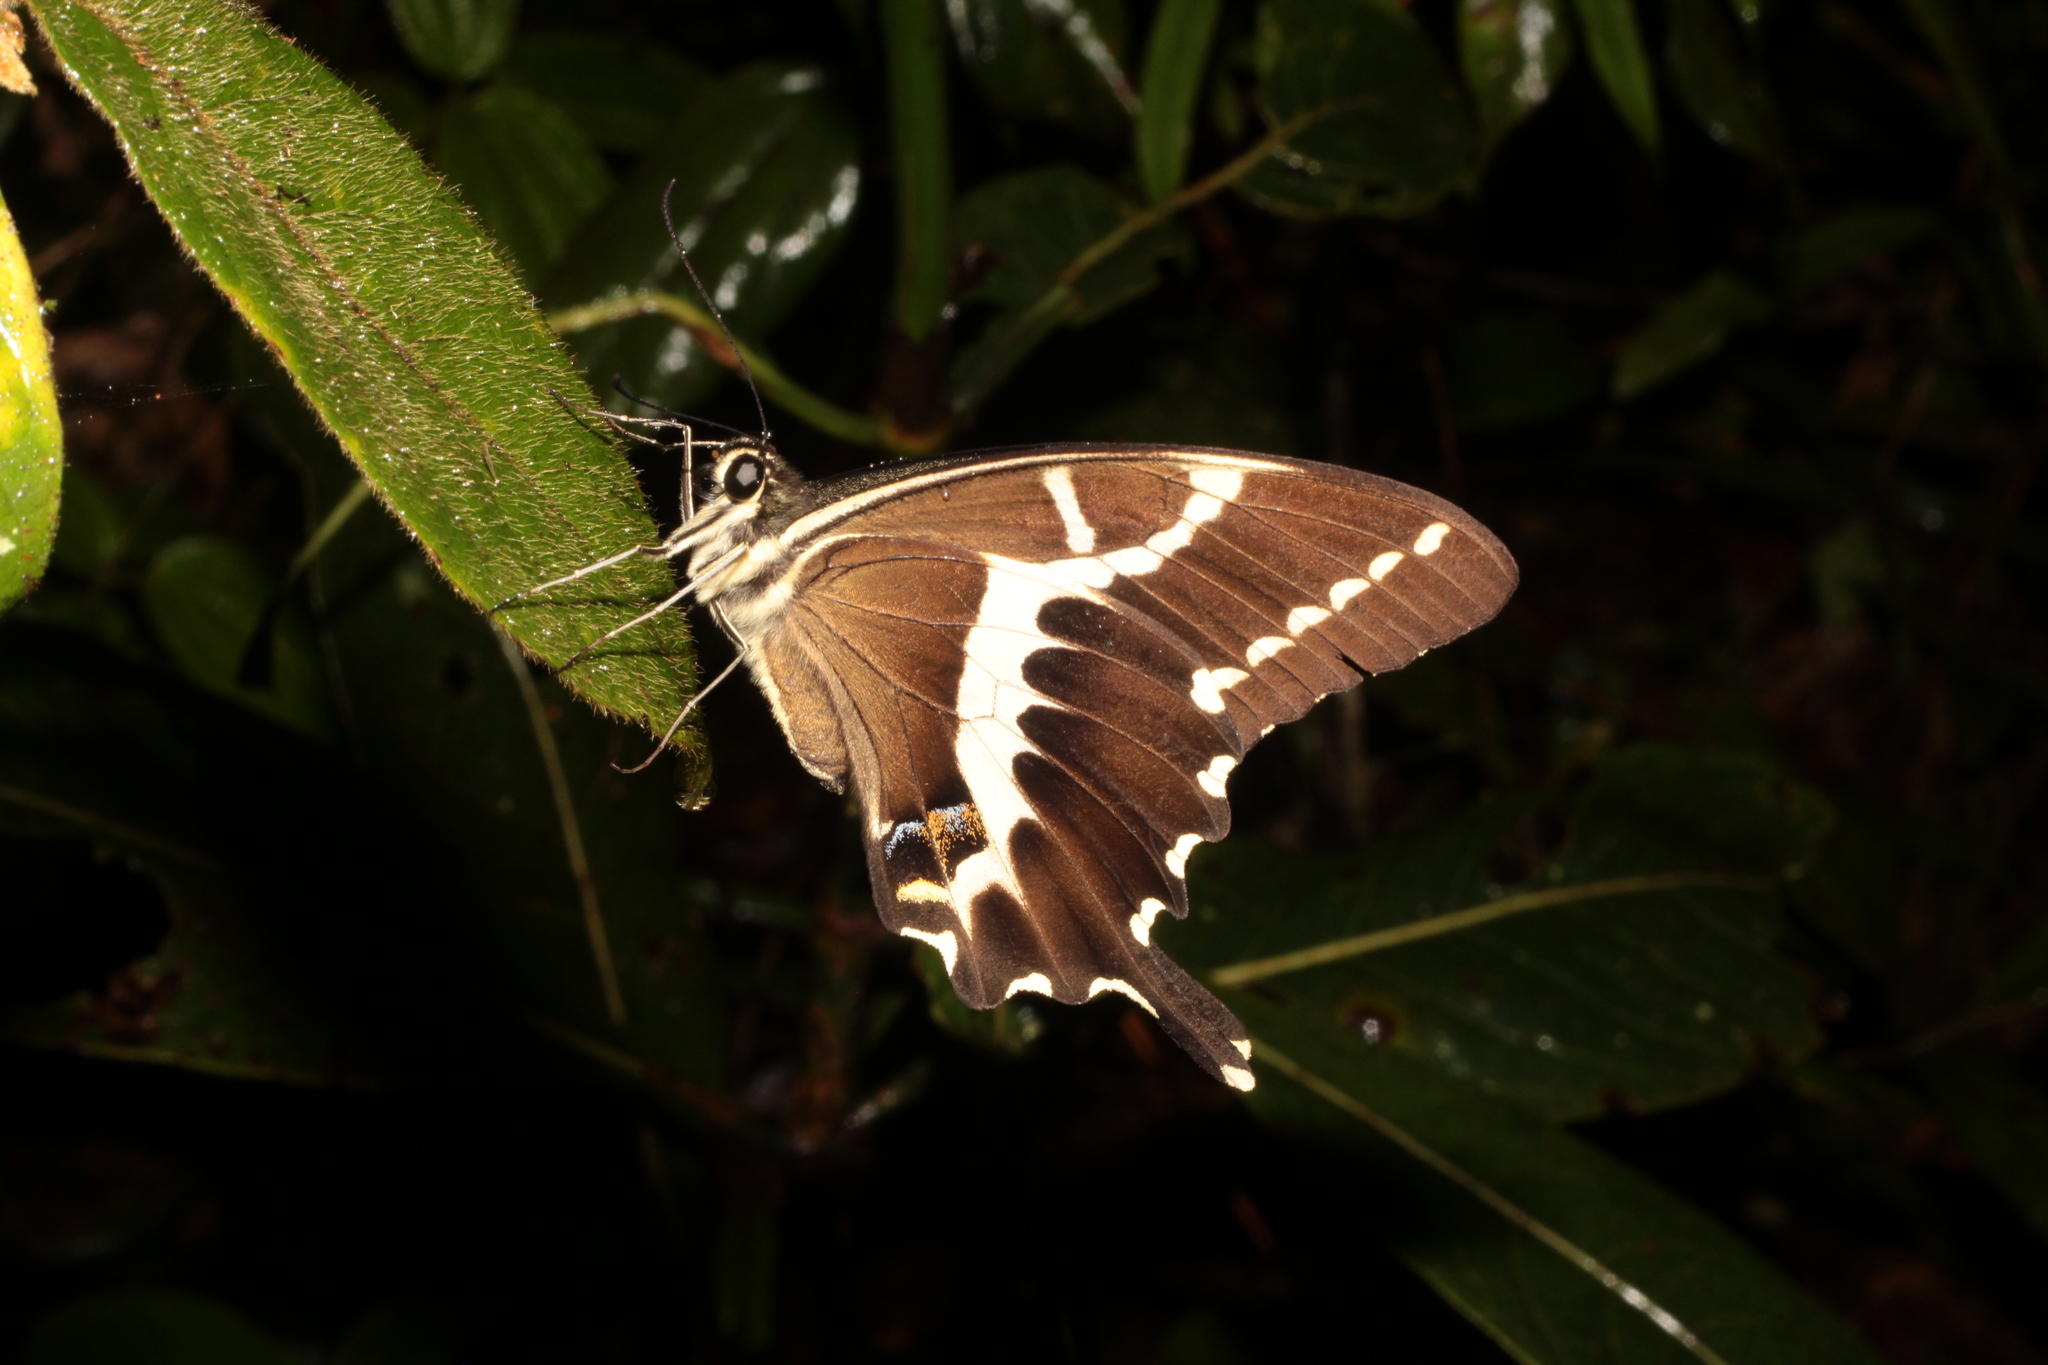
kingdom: Animalia
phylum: Arthropoda
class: Insecta
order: Lepidoptera
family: Papilionidae
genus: Papilio
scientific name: Papilio delalandei
